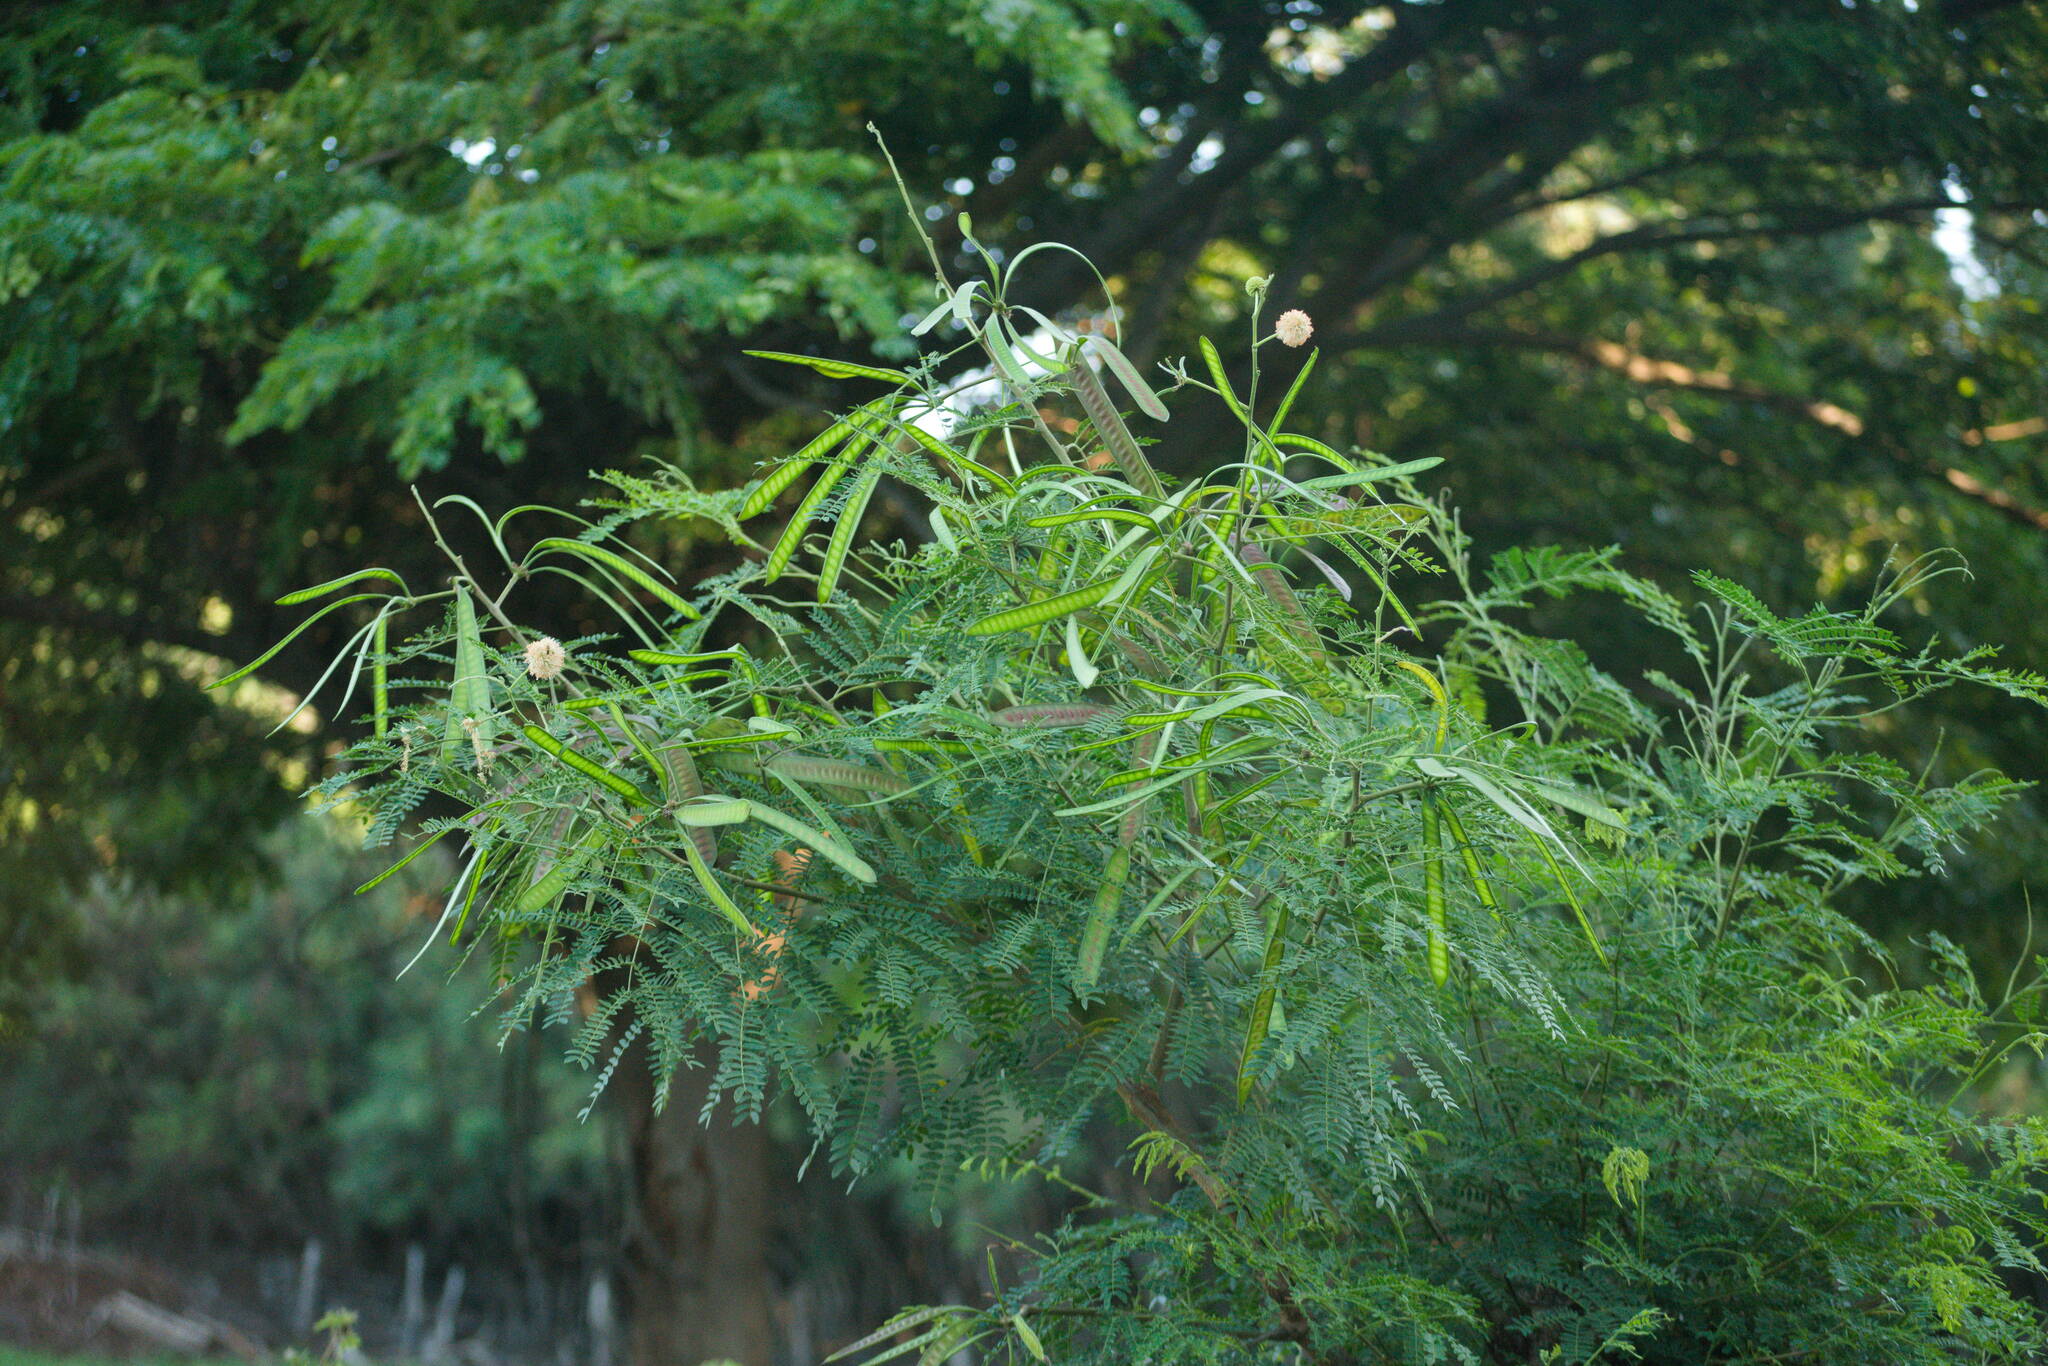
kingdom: Plantae
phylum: Tracheophyta
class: Magnoliopsida
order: Fabales
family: Fabaceae
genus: Leucaena
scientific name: Leucaena leucocephala
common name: White leadtree
